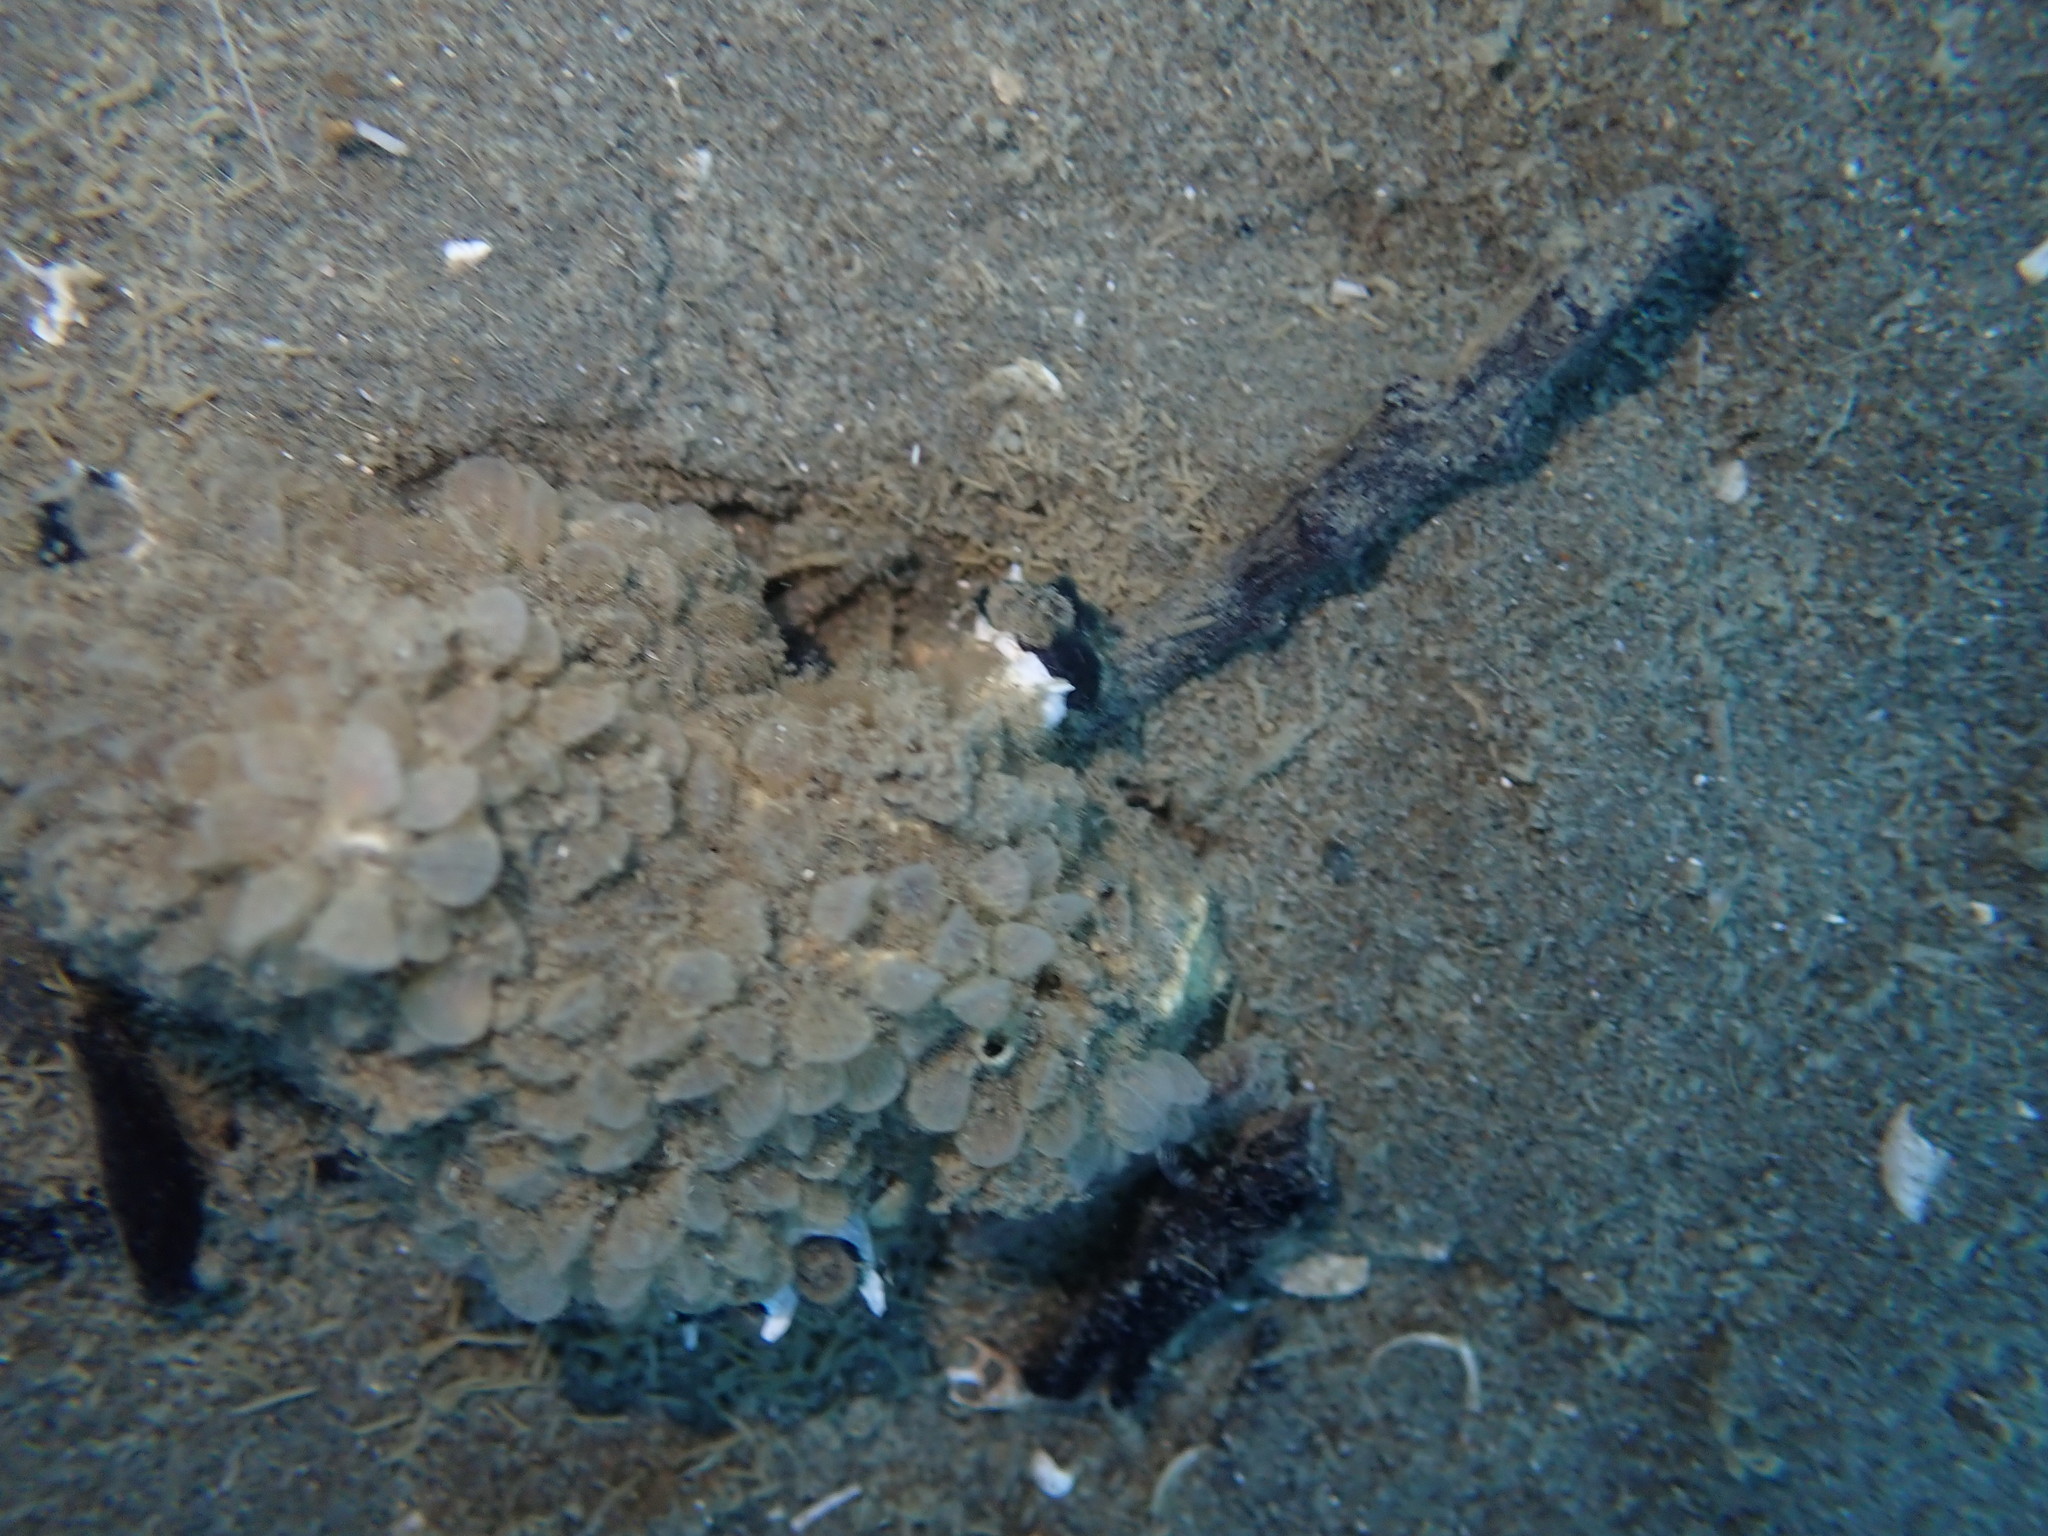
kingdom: Animalia
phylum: Mollusca
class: Gastropoda
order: Neogastropoda
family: Cominellidae
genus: Cominella
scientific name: Cominella quoyana
